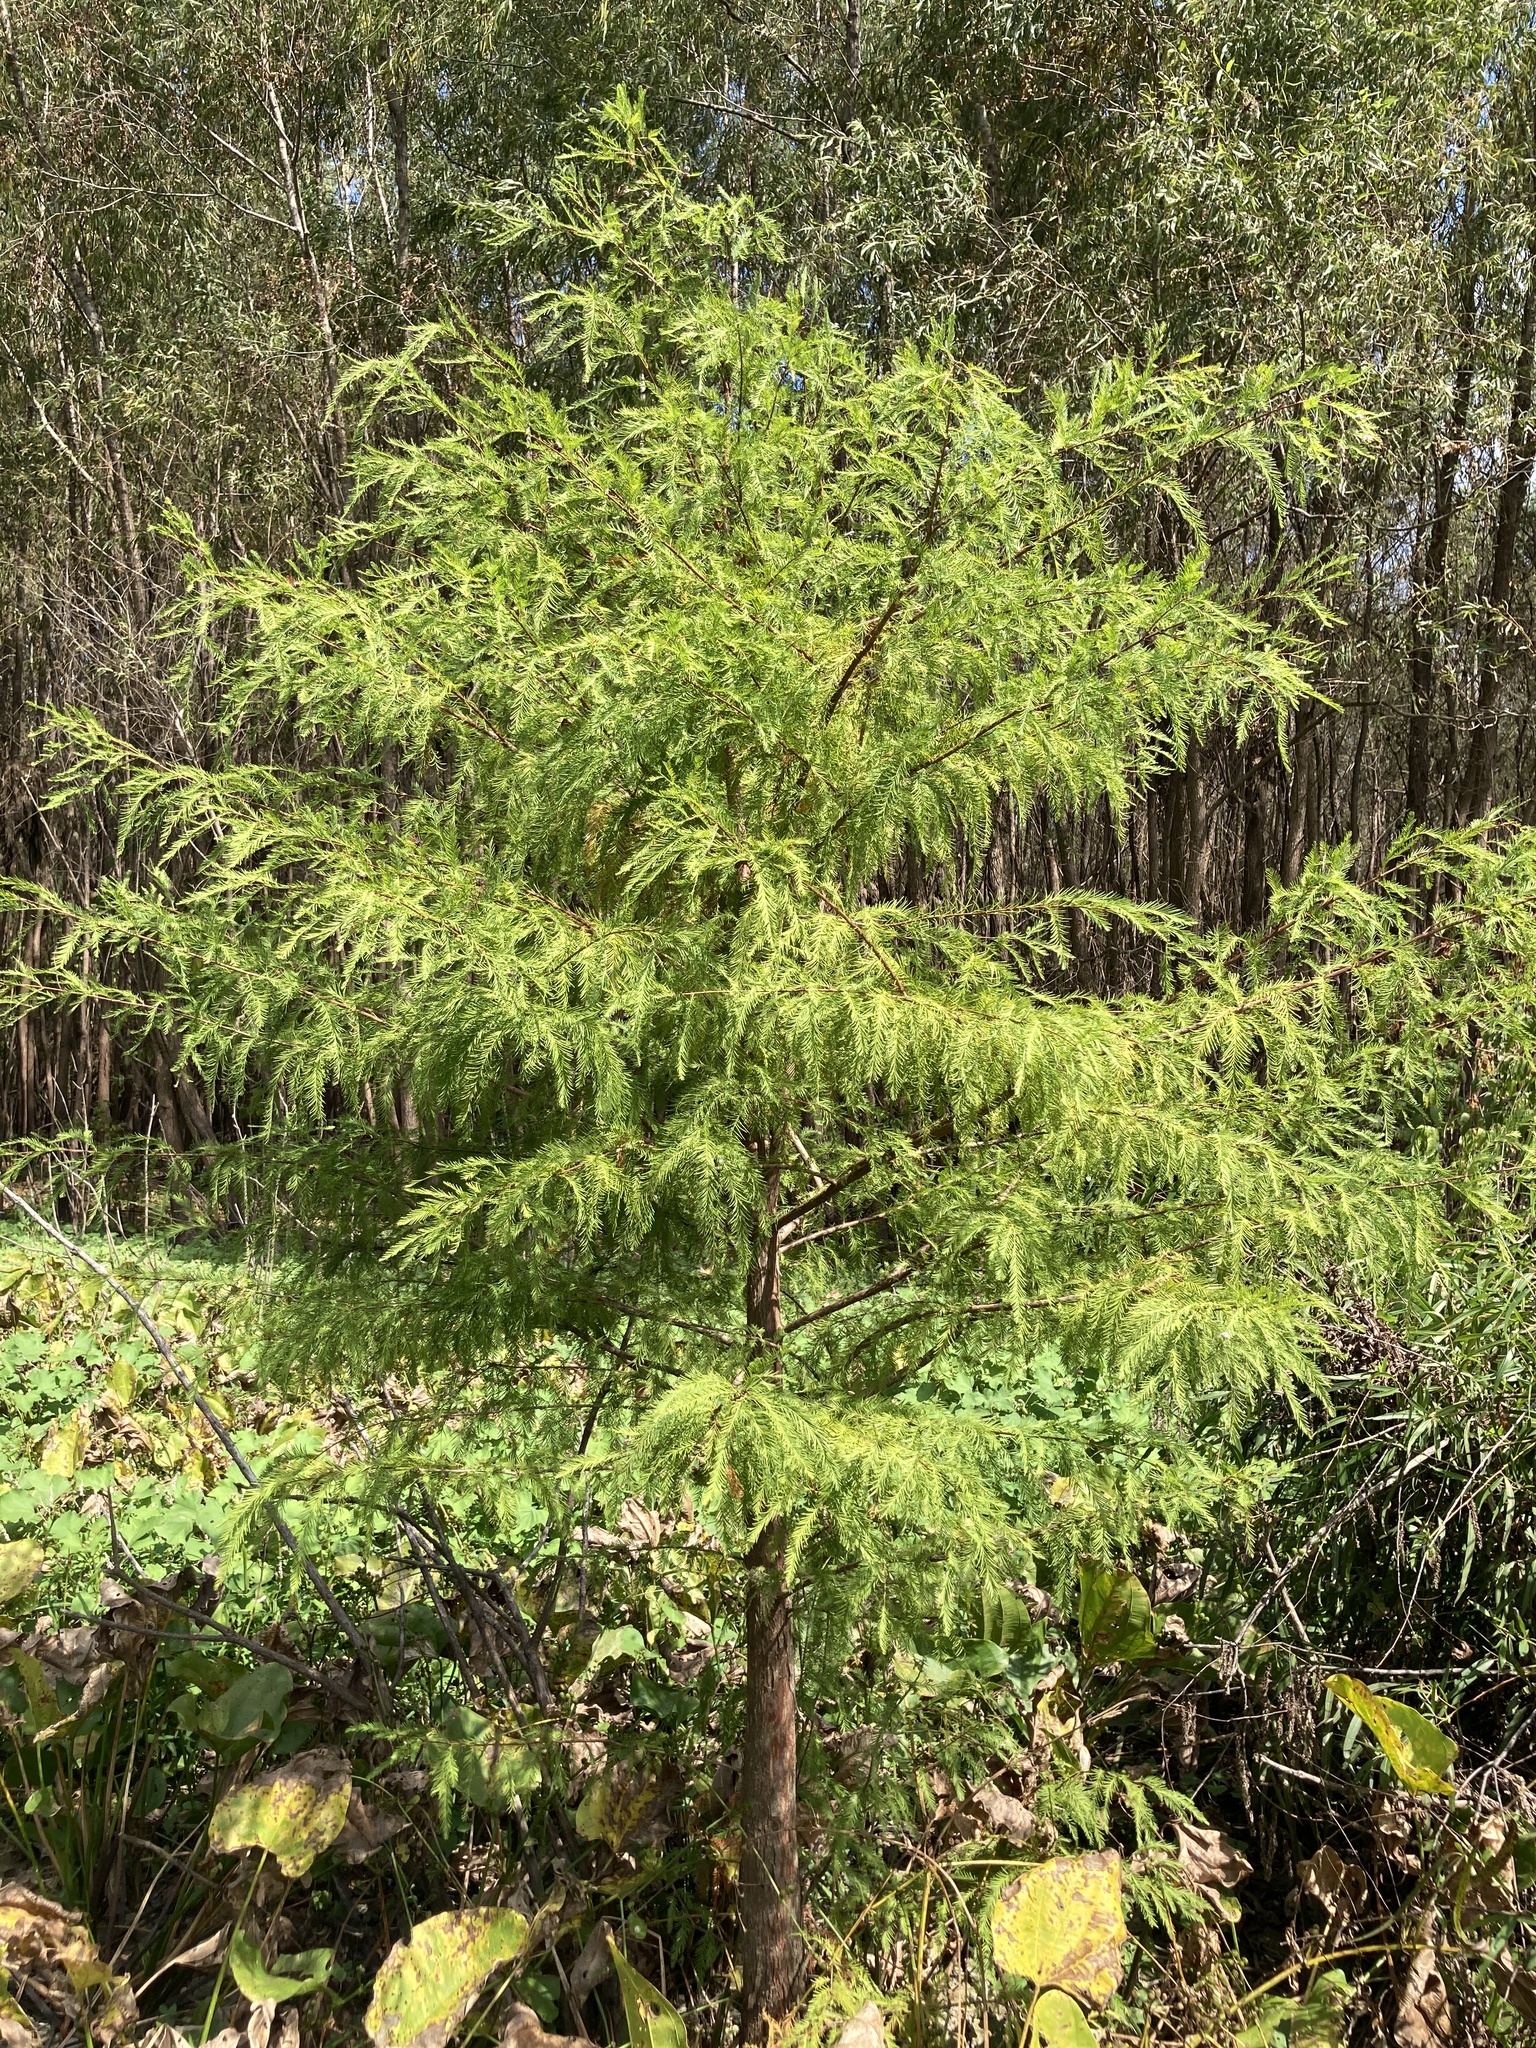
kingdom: Plantae
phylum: Tracheophyta
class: Pinopsida
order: Pinales
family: Cupressaceae
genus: Taxodium
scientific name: Taxodium distichum
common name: Bald cypress
